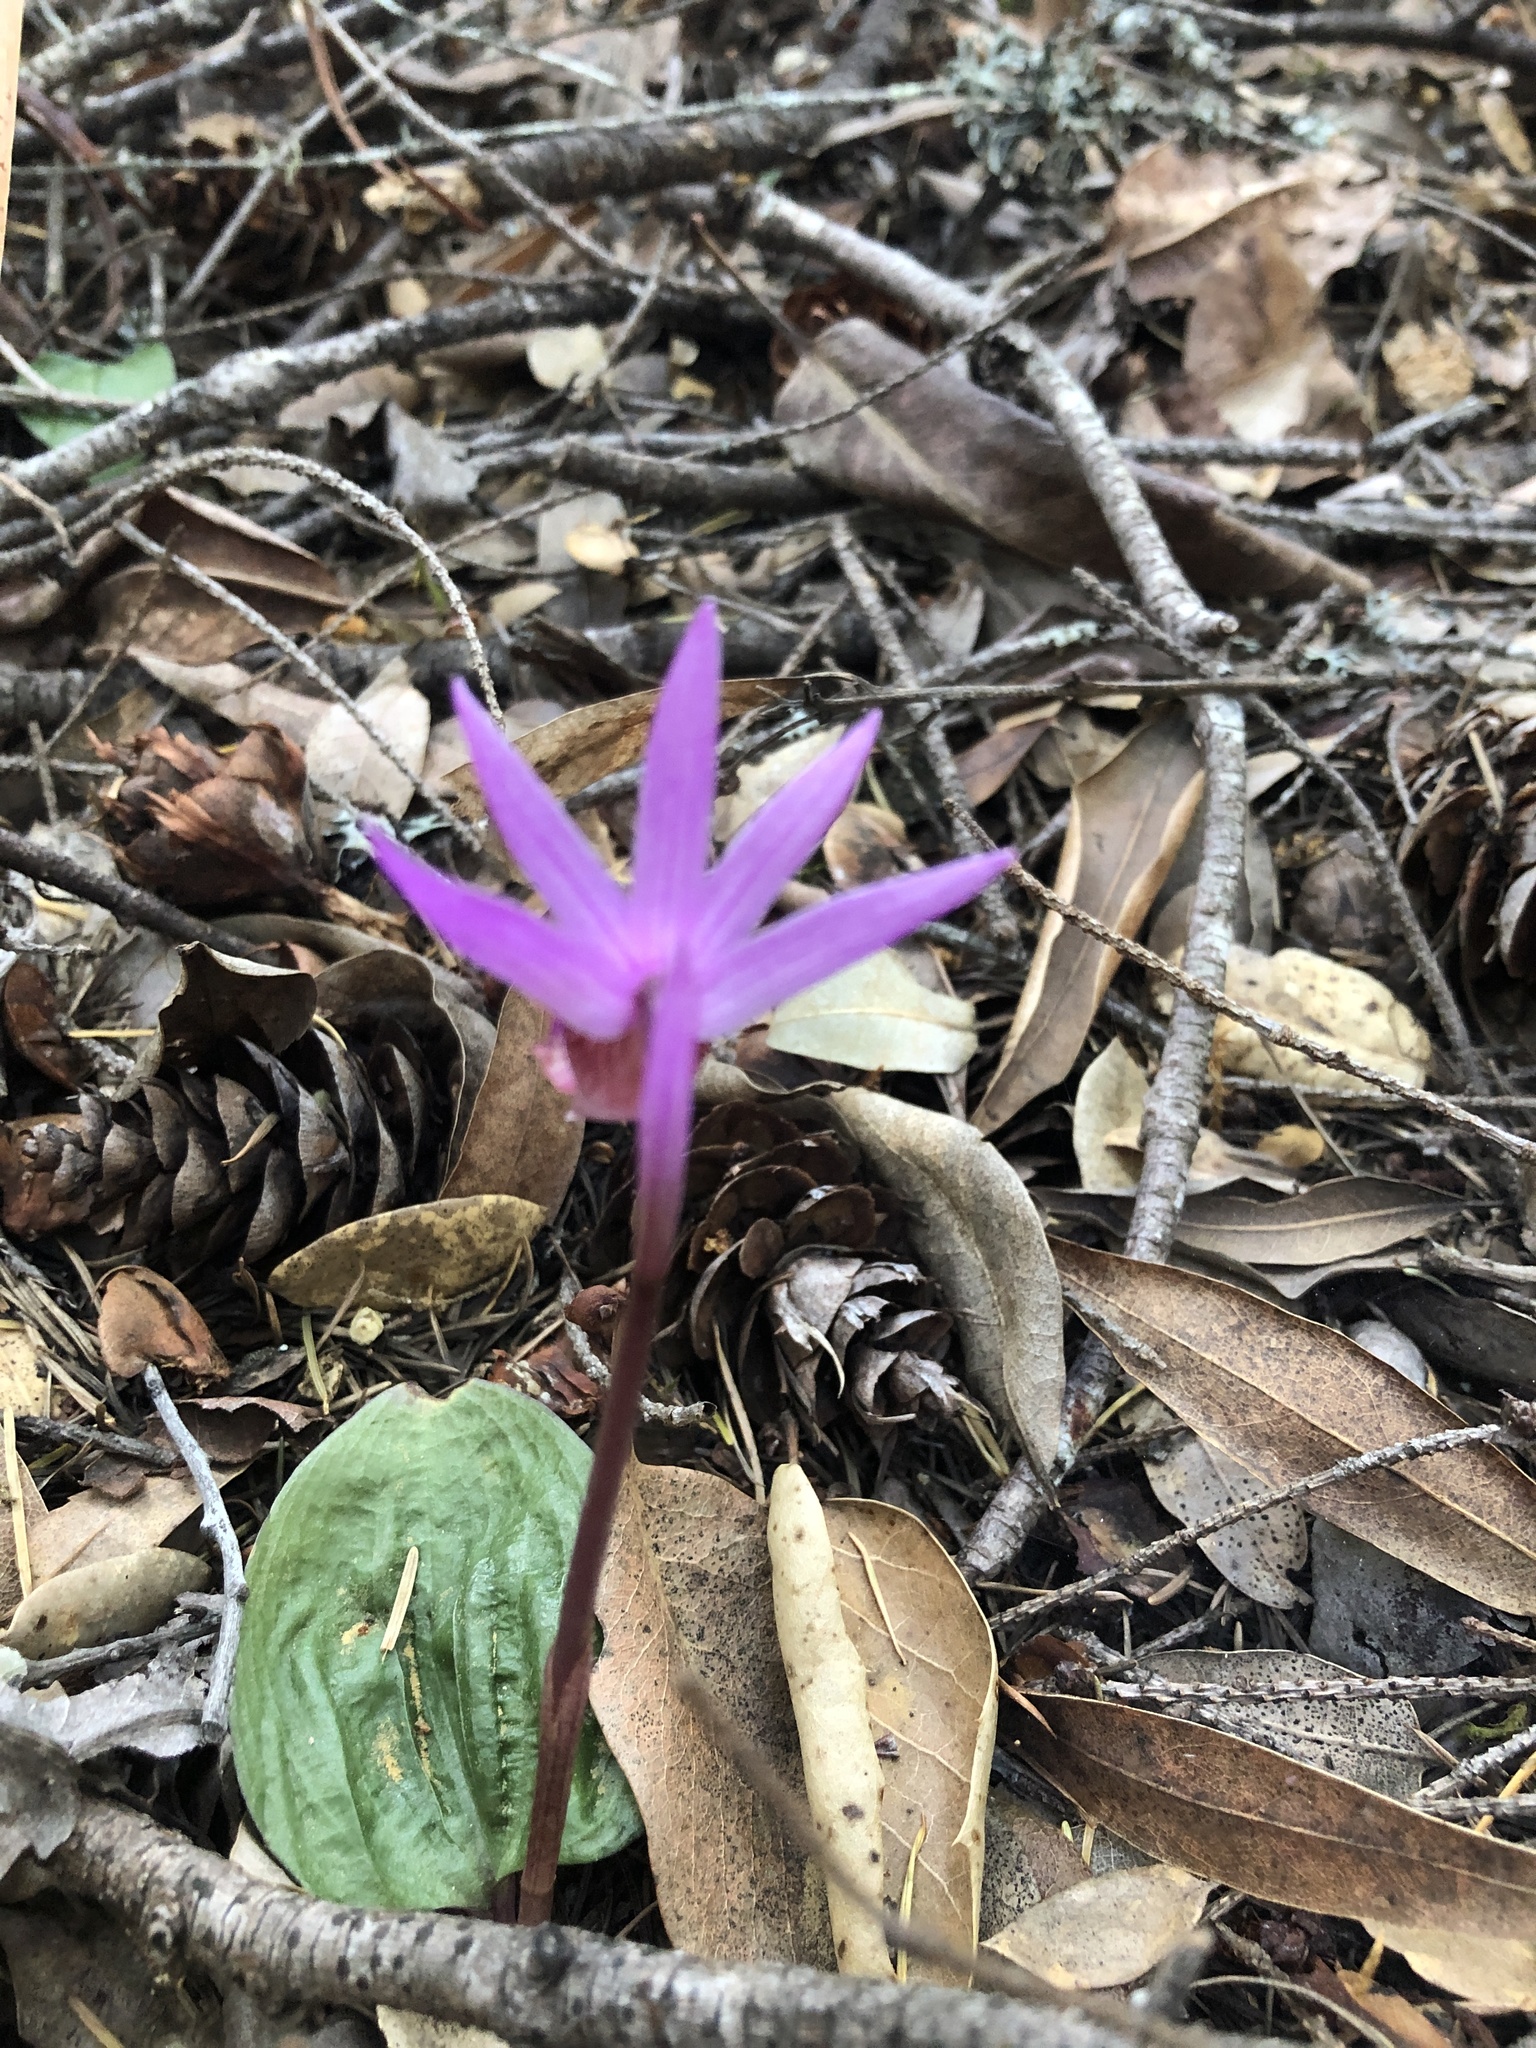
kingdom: Plantae
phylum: Tracheophyta
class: Liliopsida
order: Asparagales
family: Orchidaceae
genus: Calypso
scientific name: Calypso bulbosa
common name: Calypso
